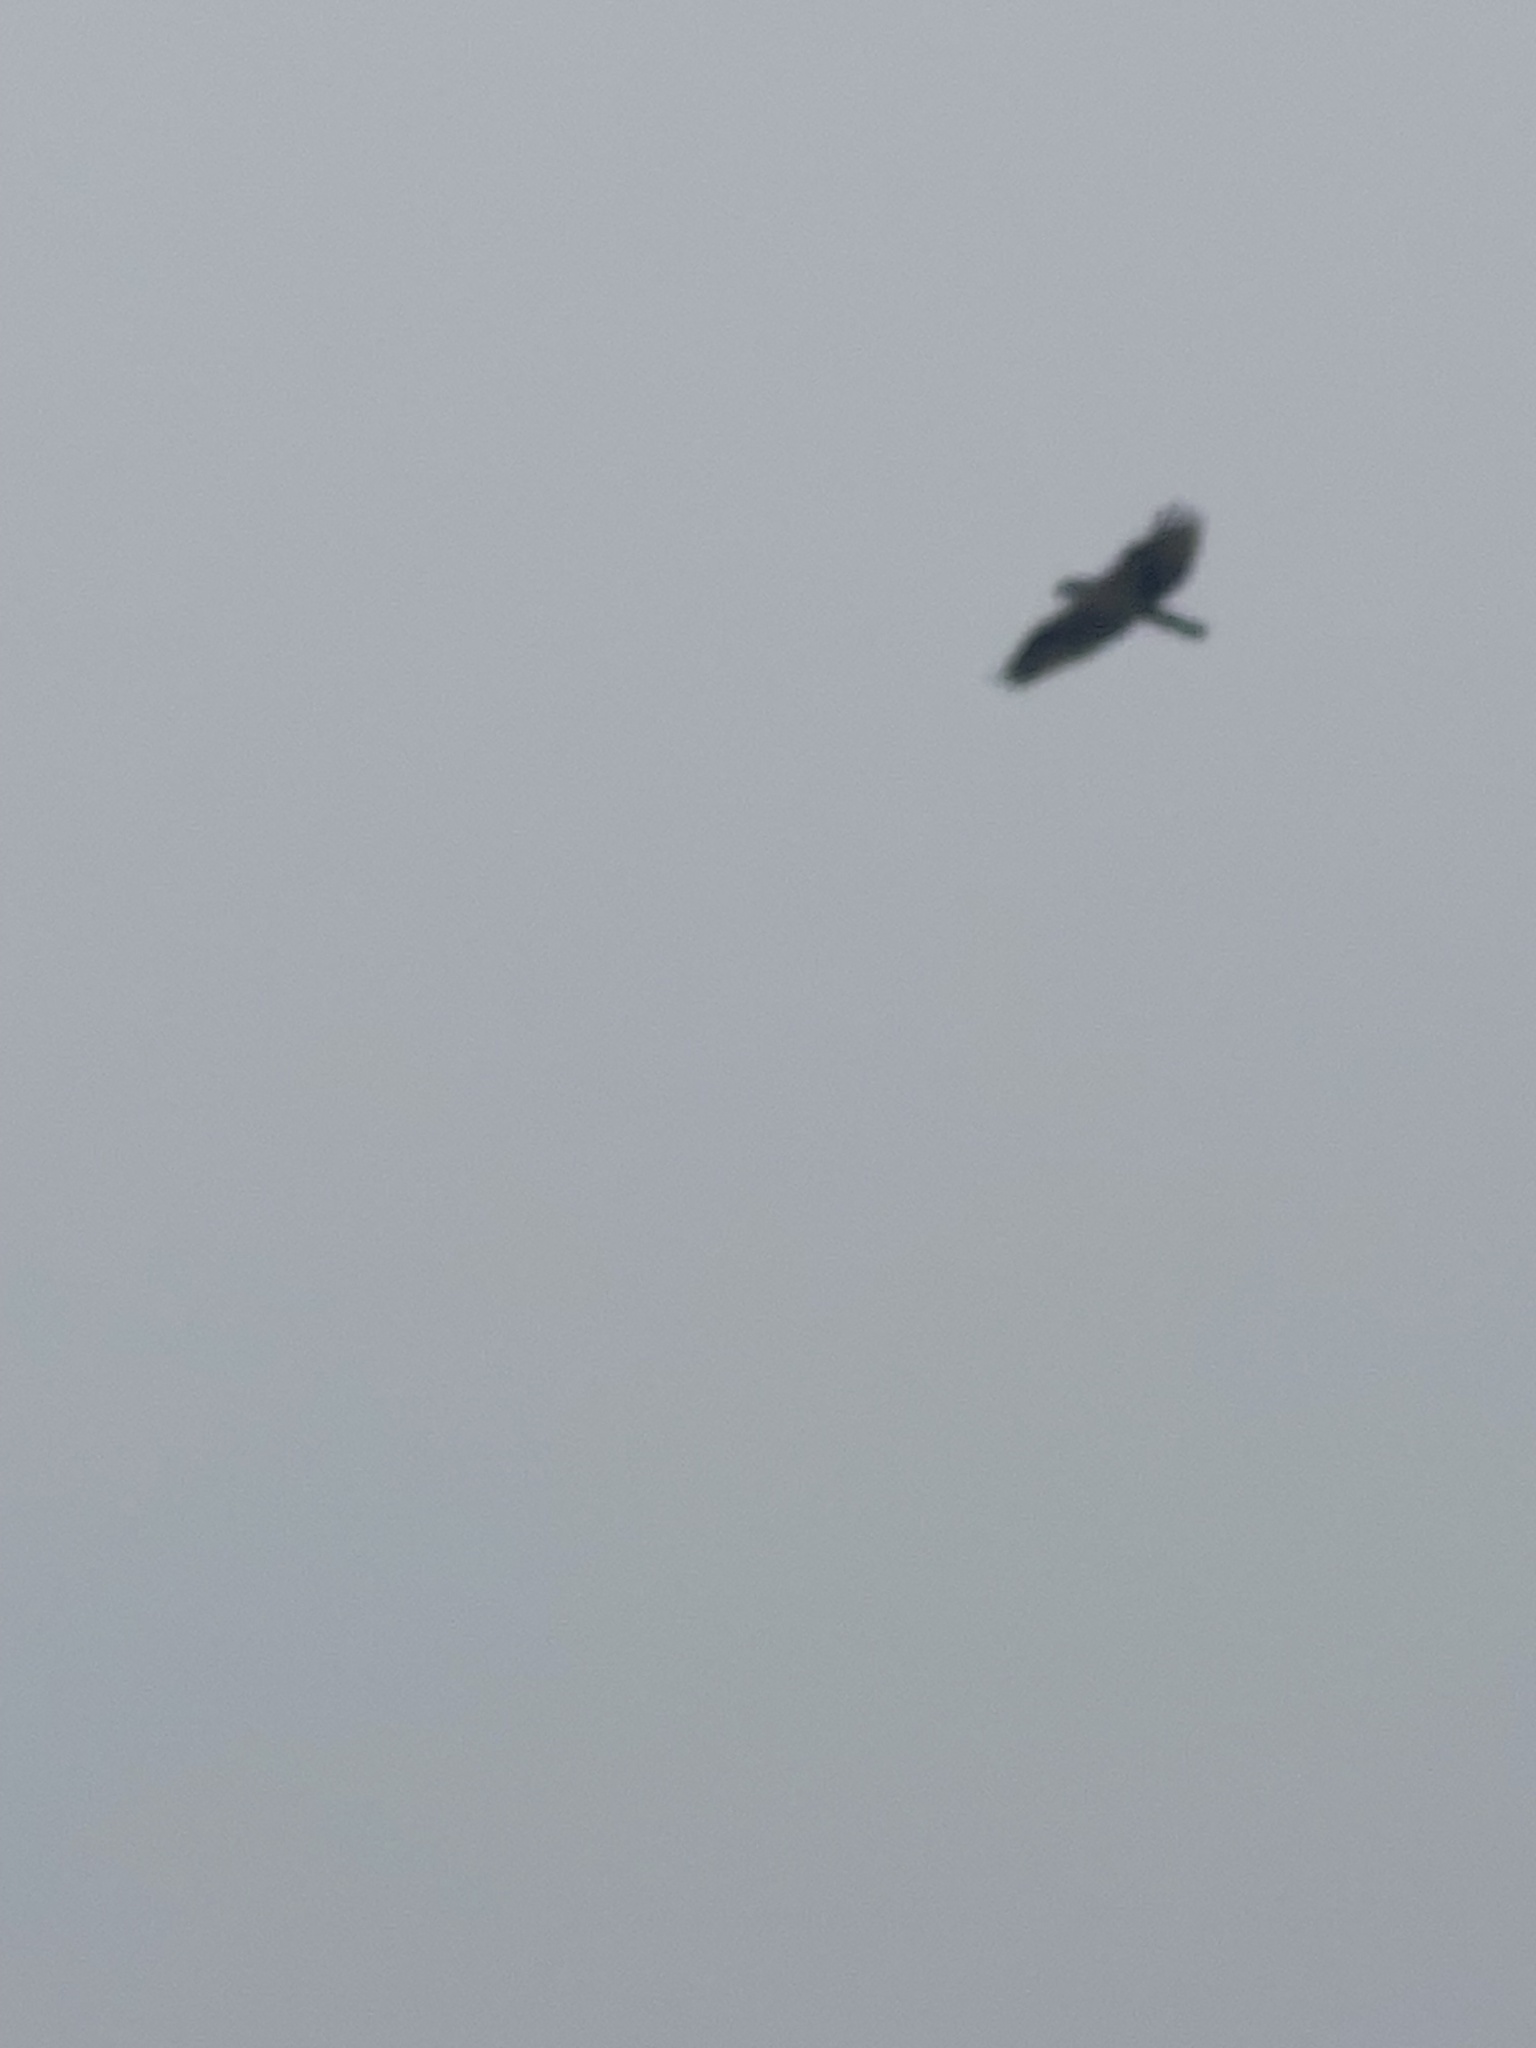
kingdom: Animalia
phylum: Chordata
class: Aves
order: Accipitriformes
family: Pandionidae
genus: Pandion
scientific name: Pandion haliaetus
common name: Osprey
